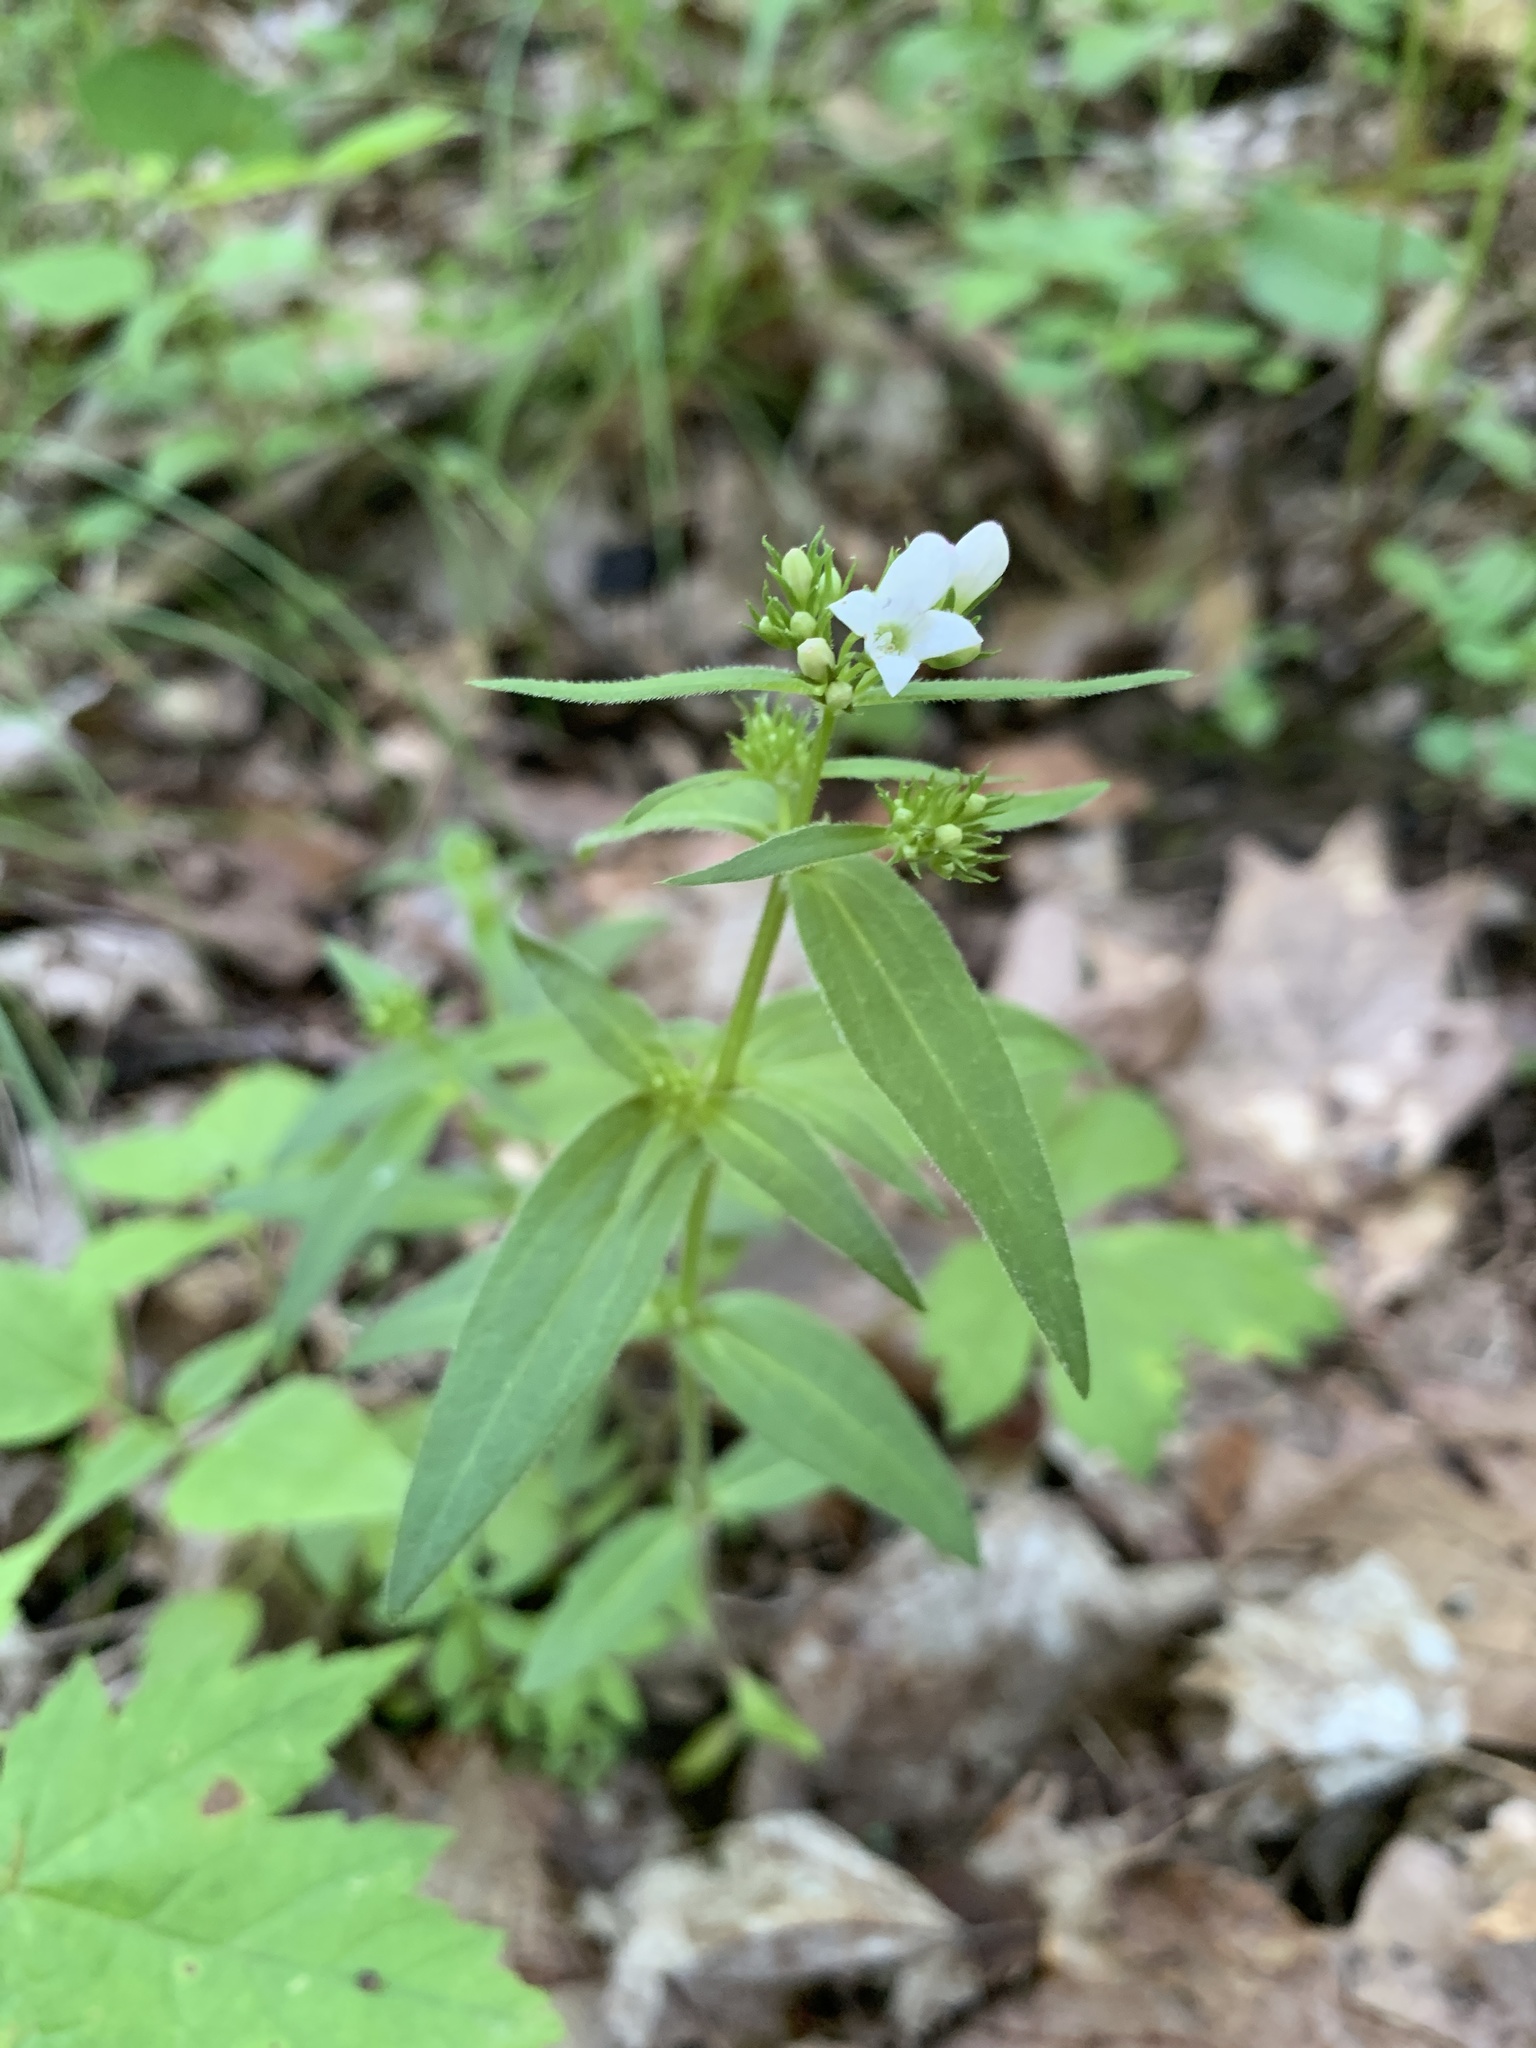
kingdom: Plantae
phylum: Tracheophyta
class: Magnoliopsida
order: Gentianales
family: Rubiaceae
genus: Houstonia
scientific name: Houstonia purpurea
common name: Summer bluet
